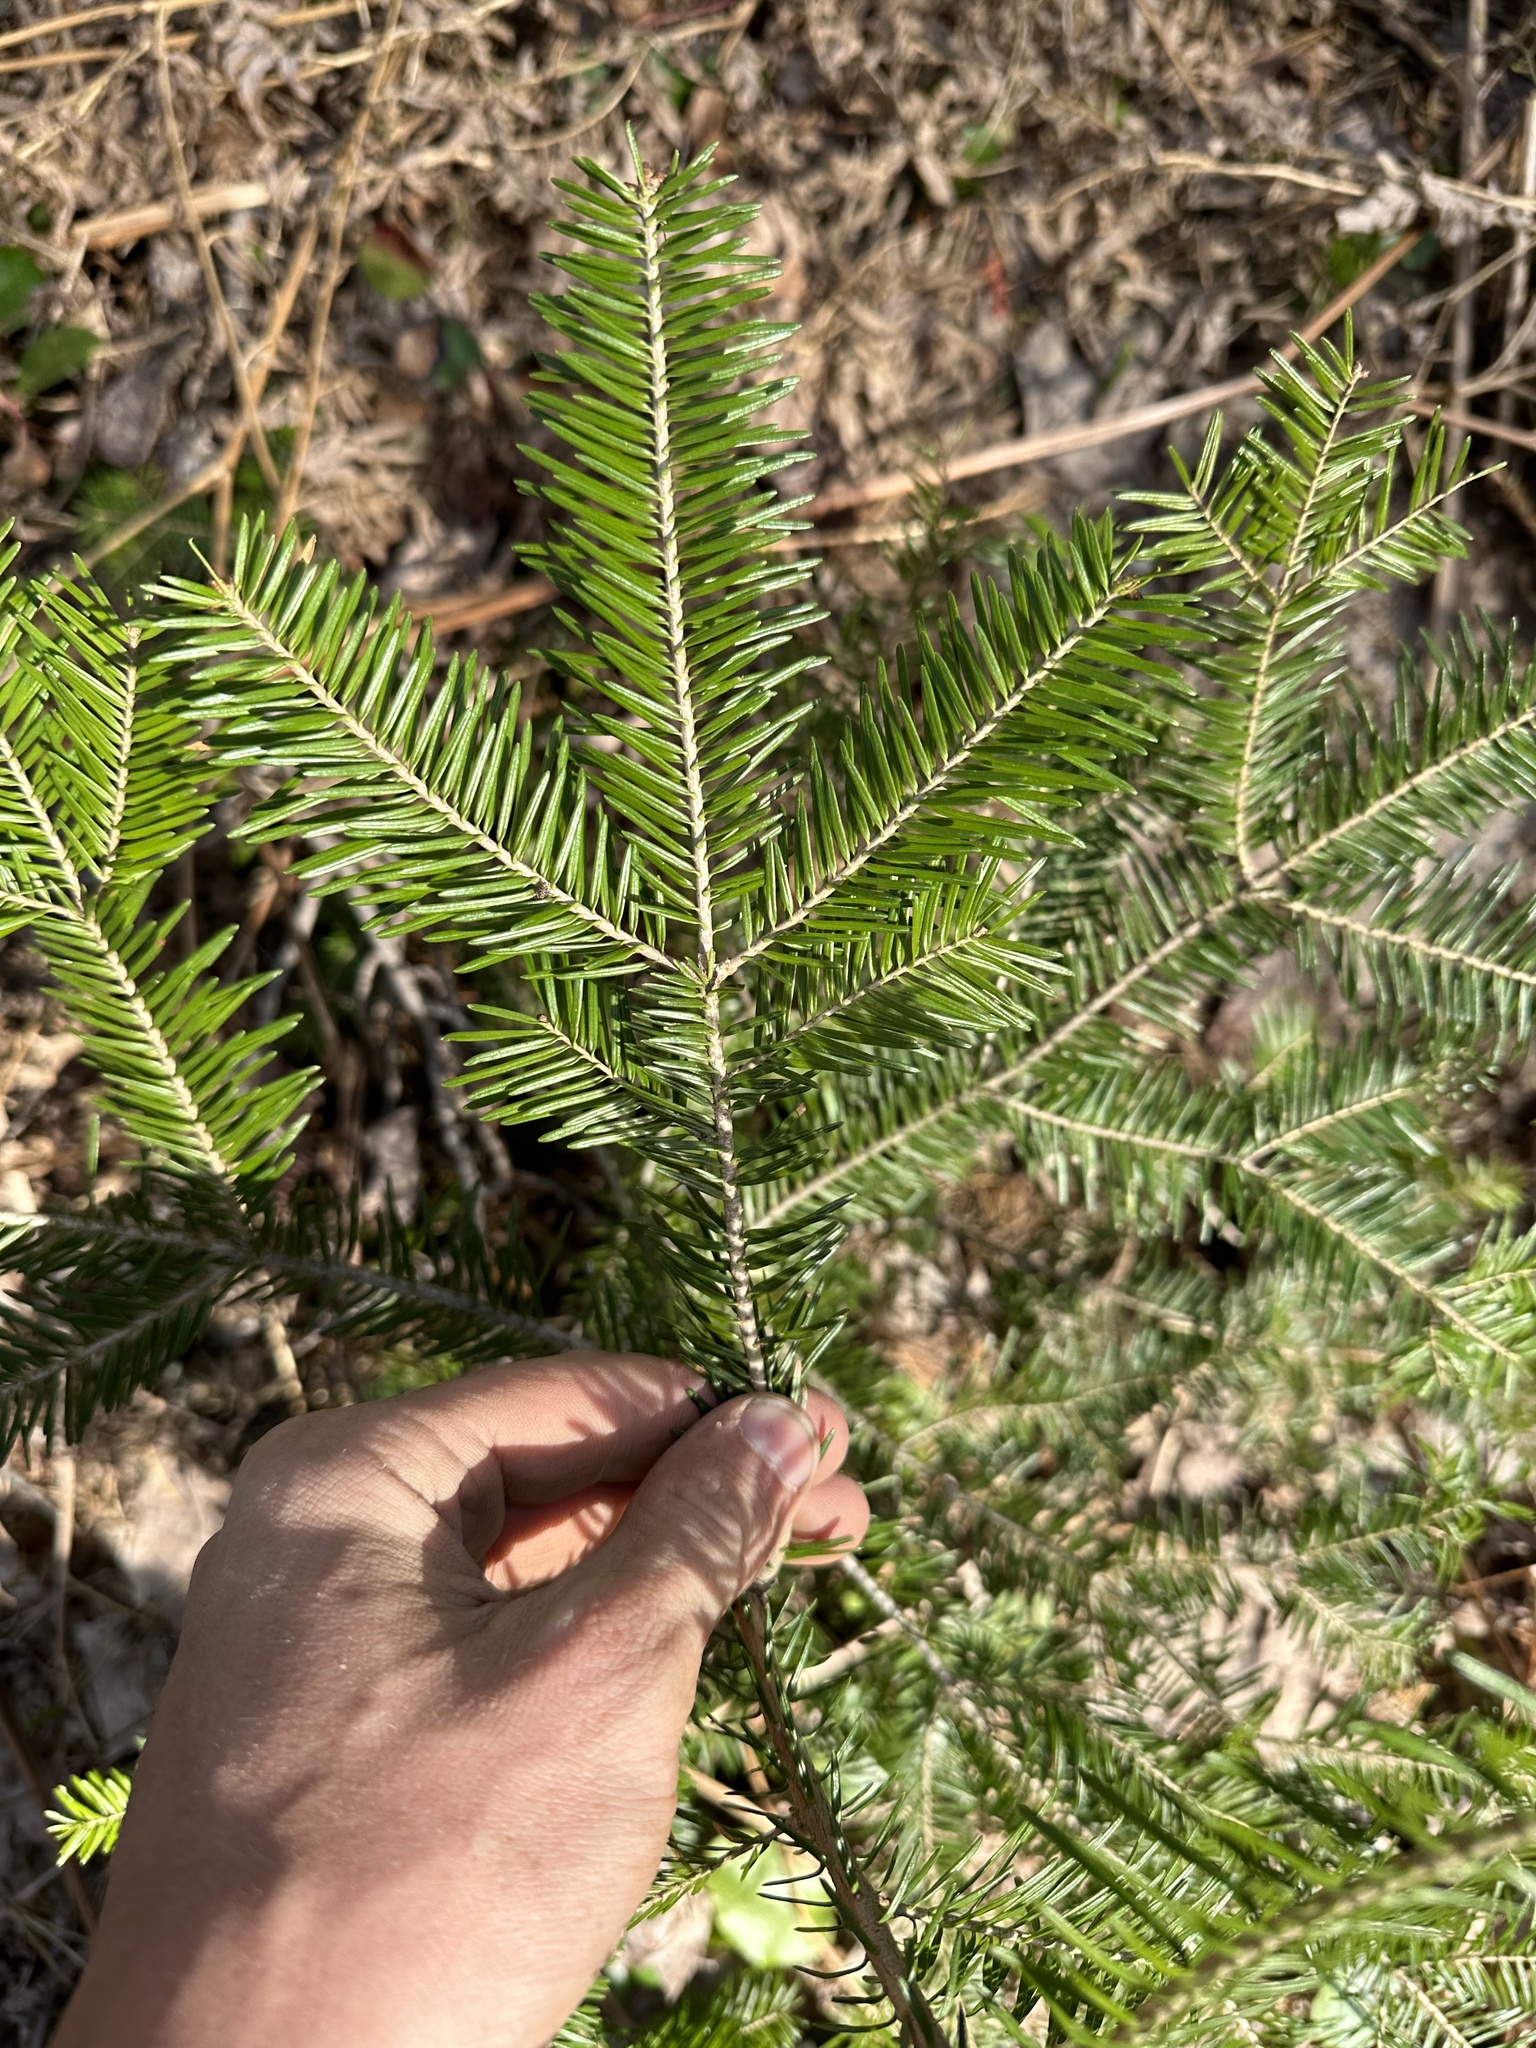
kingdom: Plantae
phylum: Tracheophyta
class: Pinopsida
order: Pinales
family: Pinaceae
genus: Abies
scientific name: Abies balsamea
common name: Balsam fir
